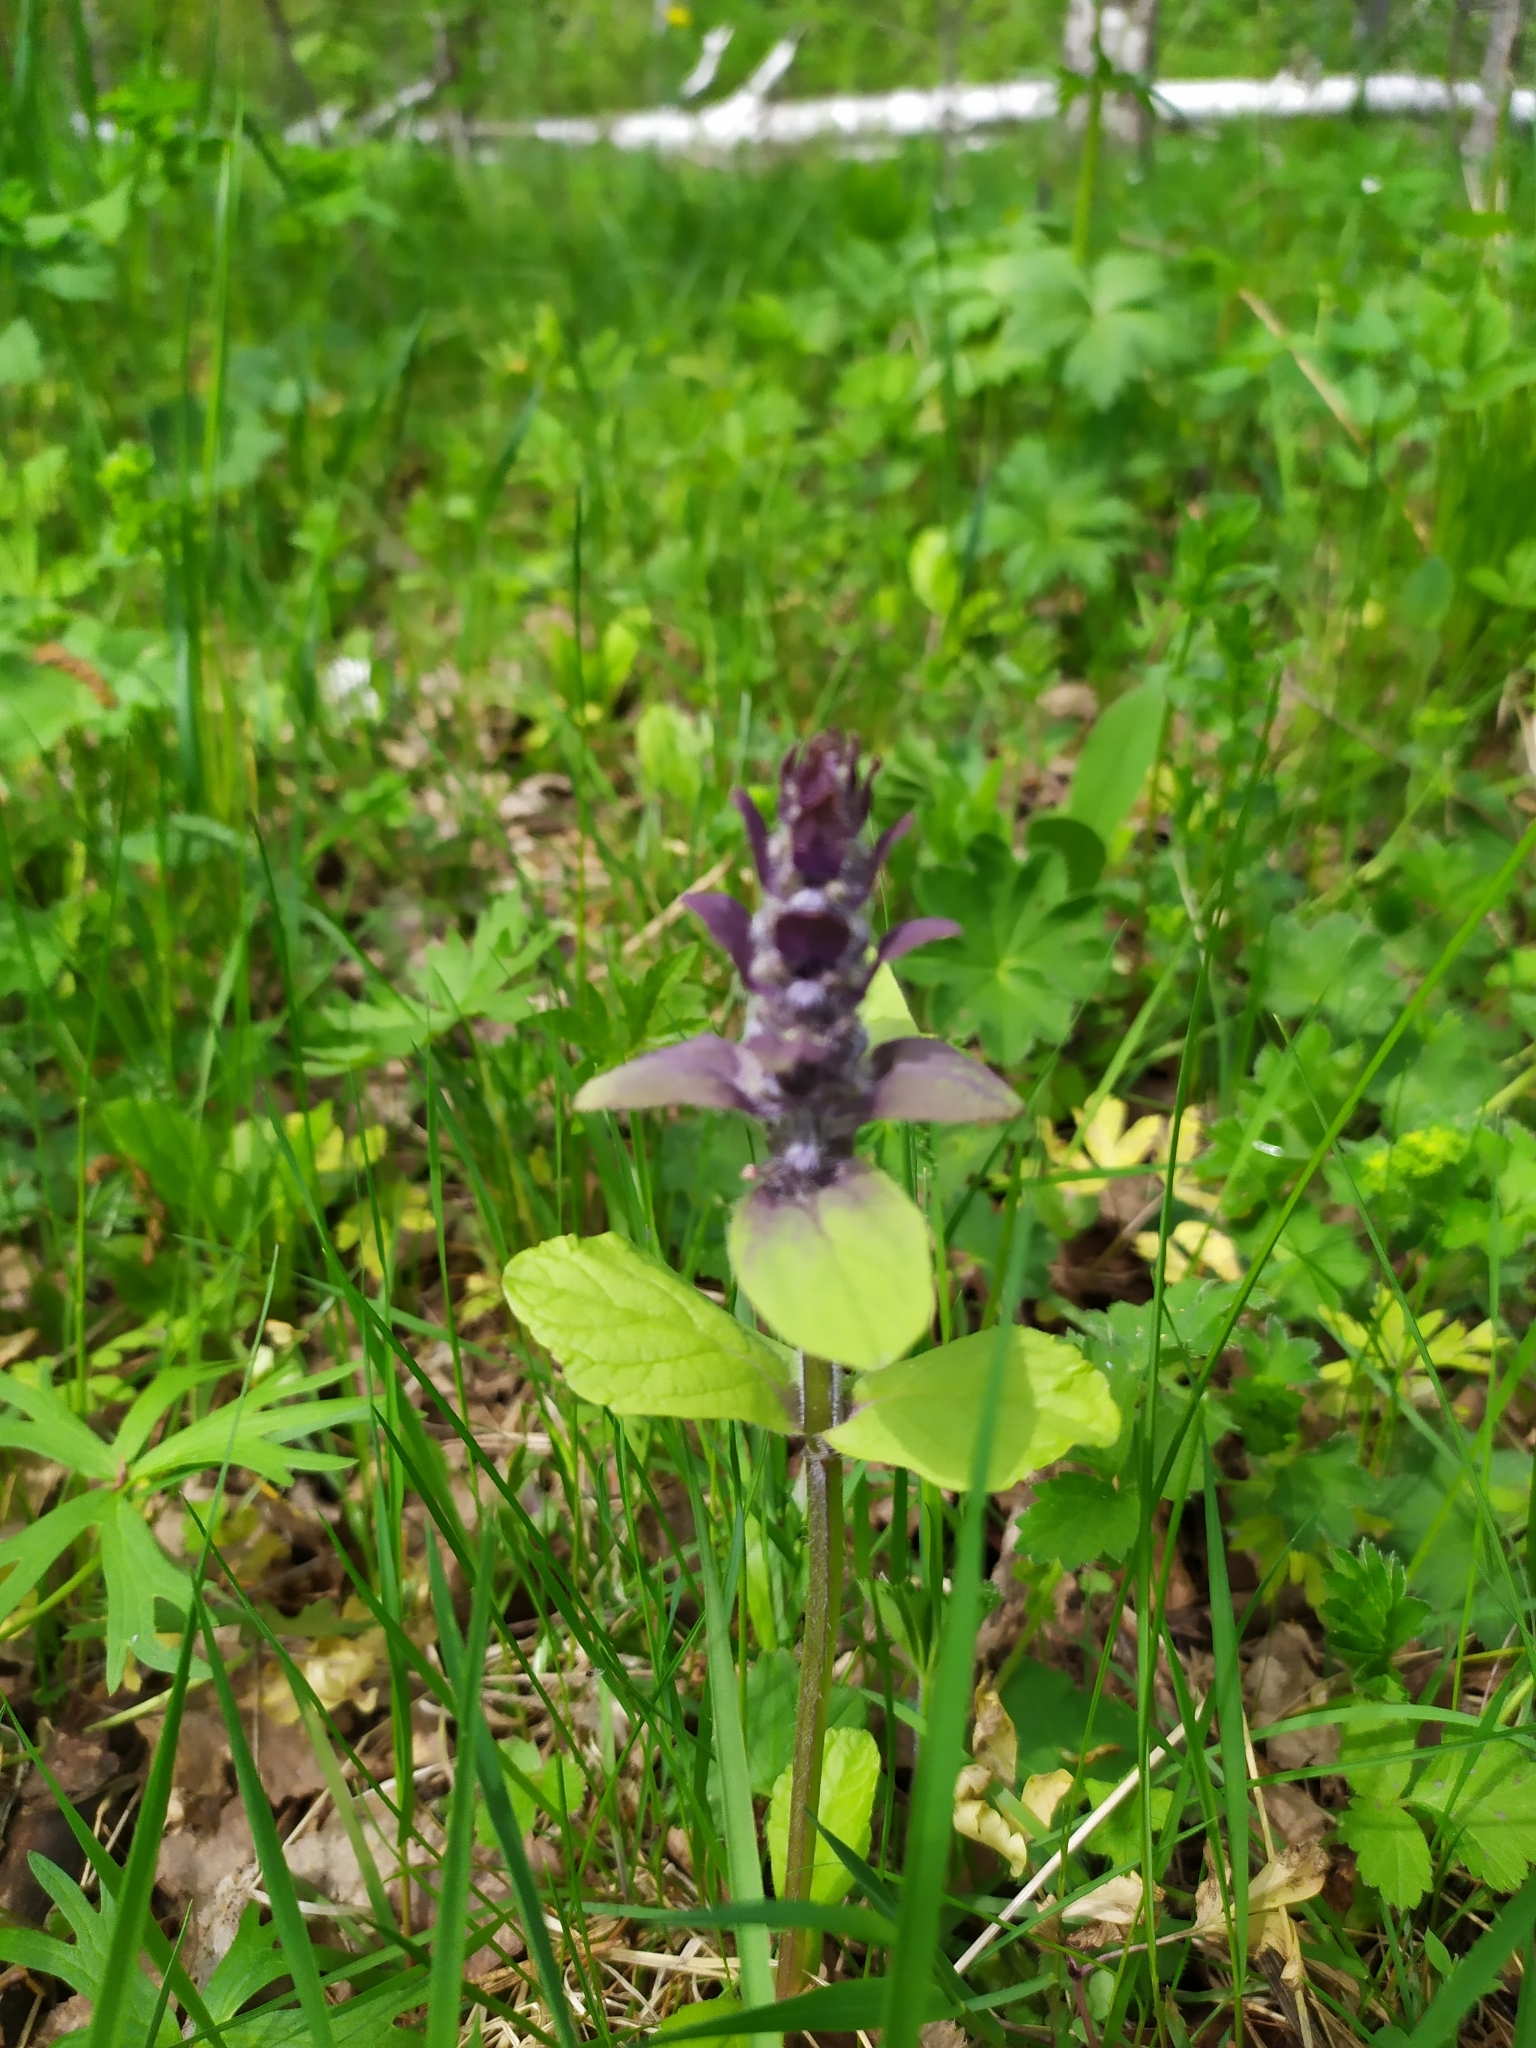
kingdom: Plantae
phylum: Tracheophyta
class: Magnoliopsida
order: Lamiales
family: Lamiaceae
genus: Ajuga
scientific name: Ajuga reptans
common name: Bugle
